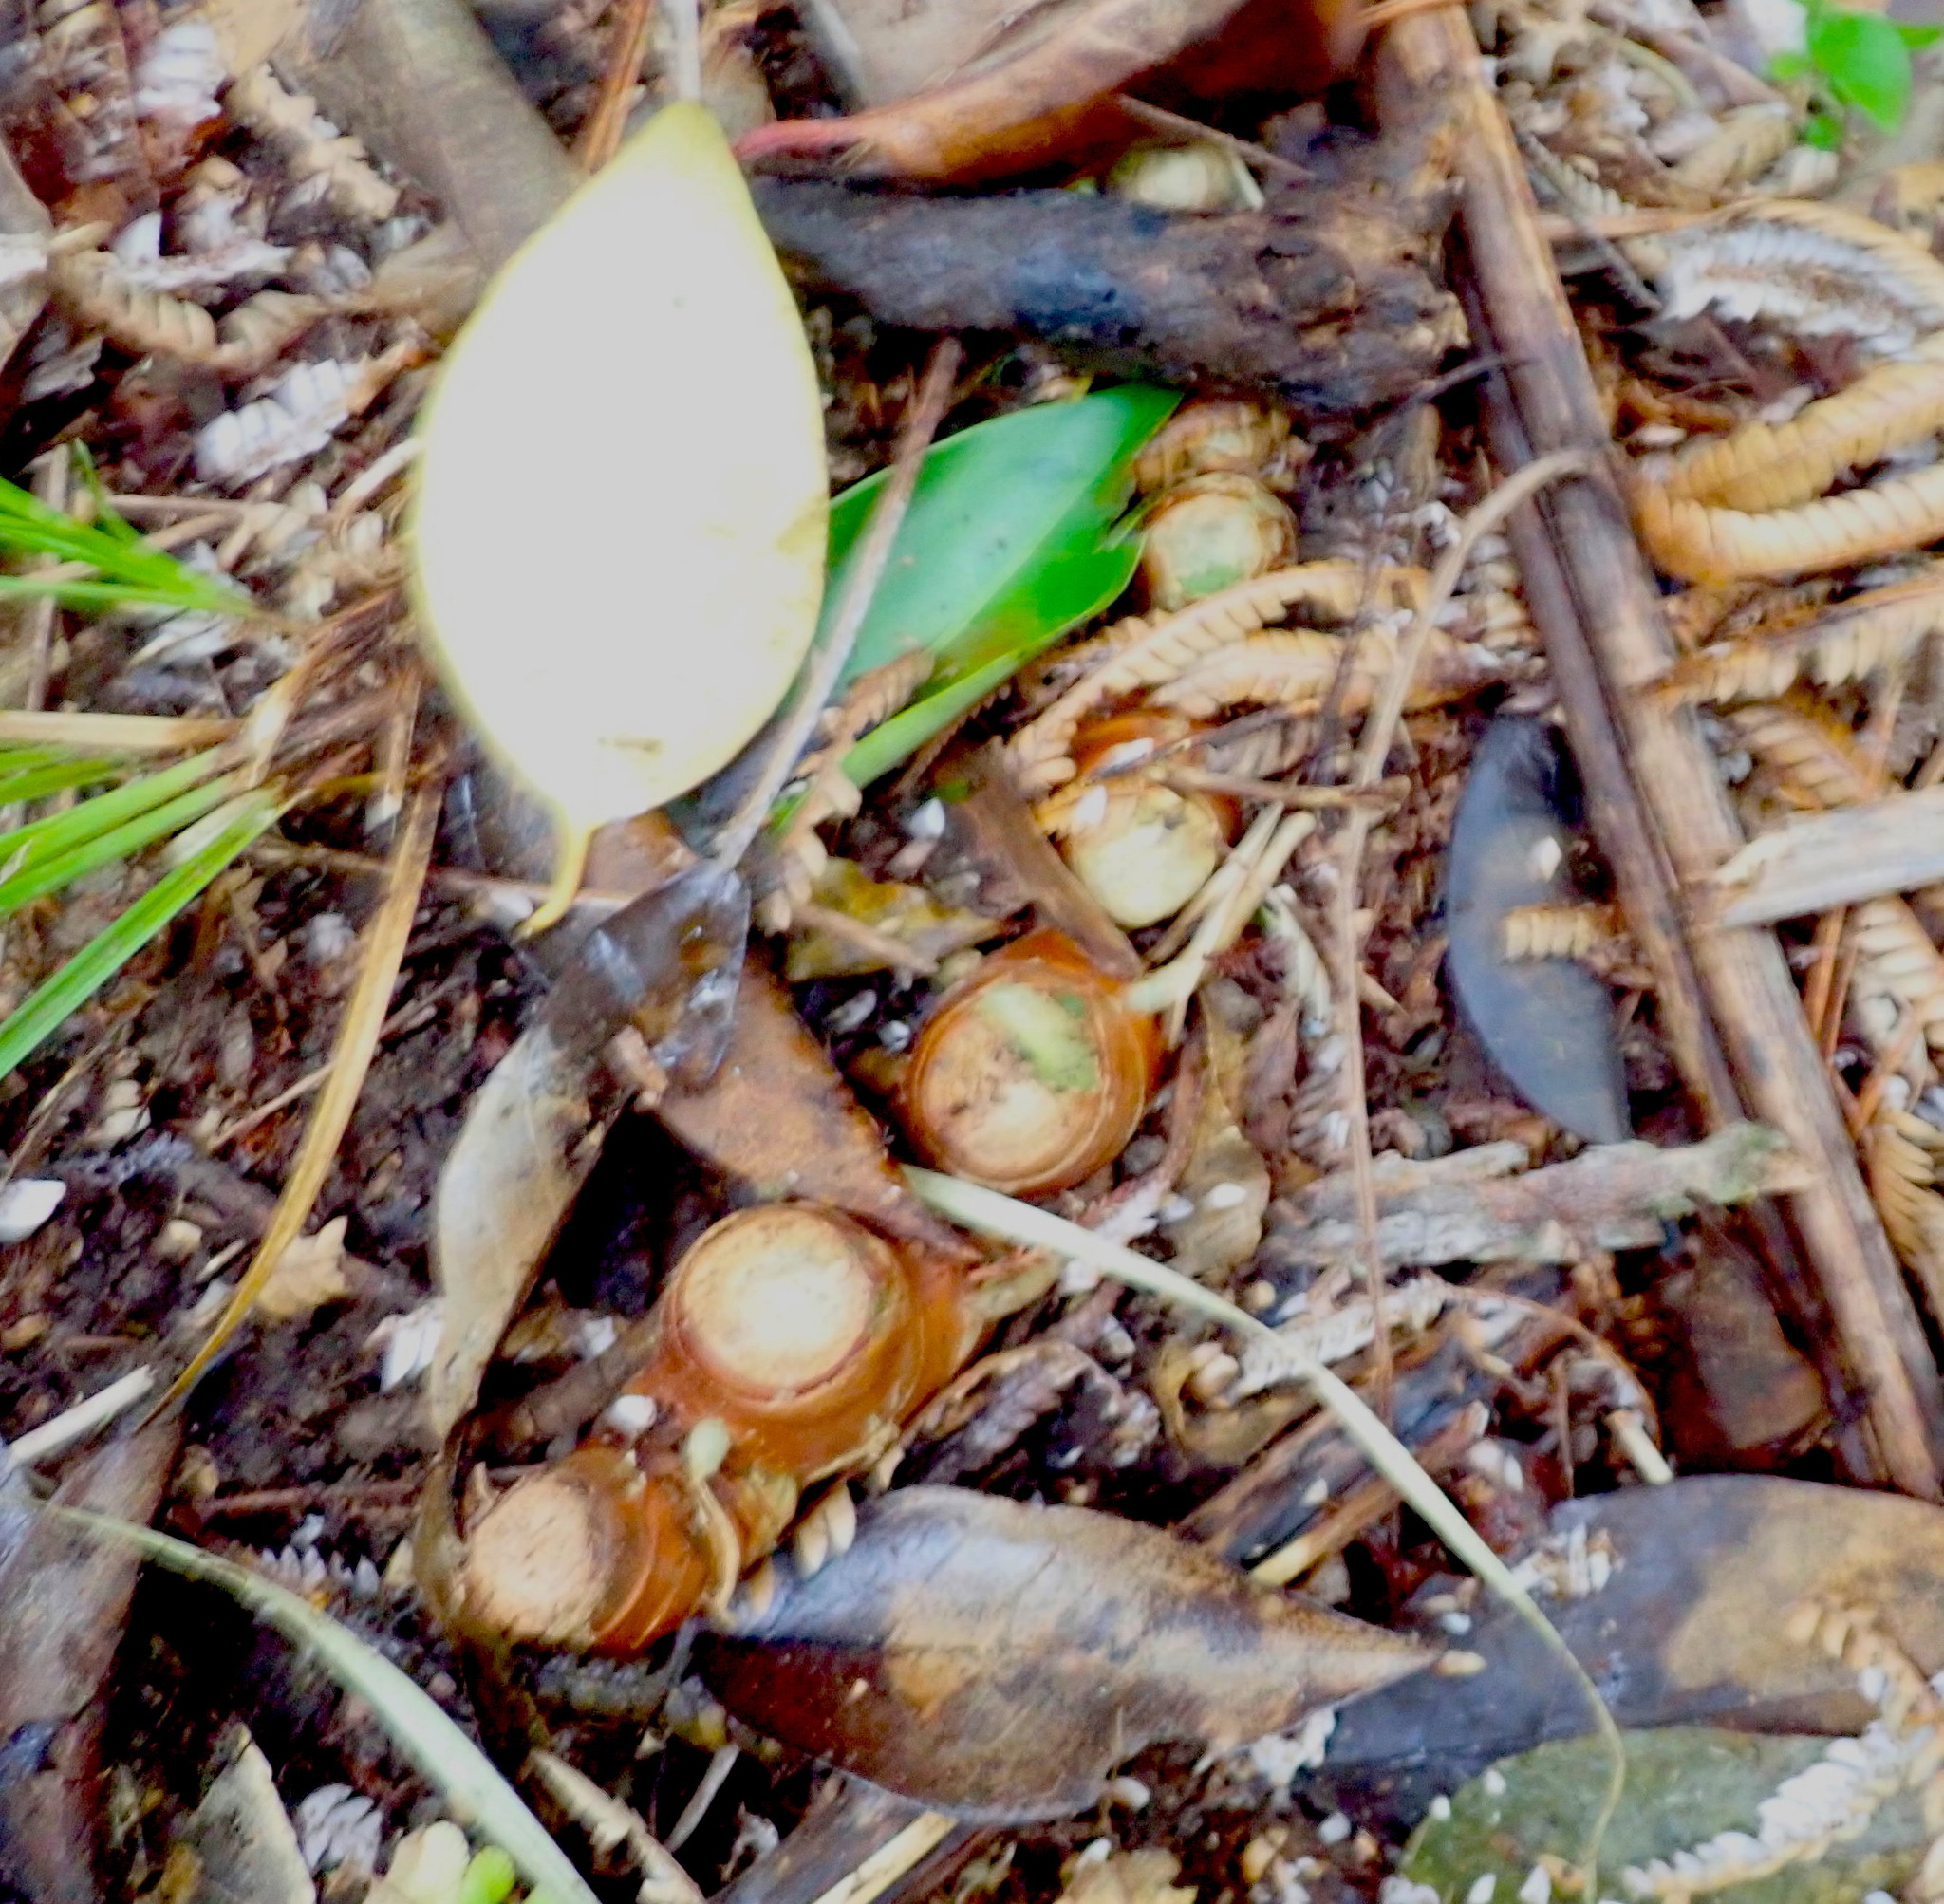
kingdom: Plantae
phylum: Tracheophyta
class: Liliopsida
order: Zingiberales
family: Zingiberaceae
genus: Hedychium
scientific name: Hedychium gardnerianum
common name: Himalayan ginger
